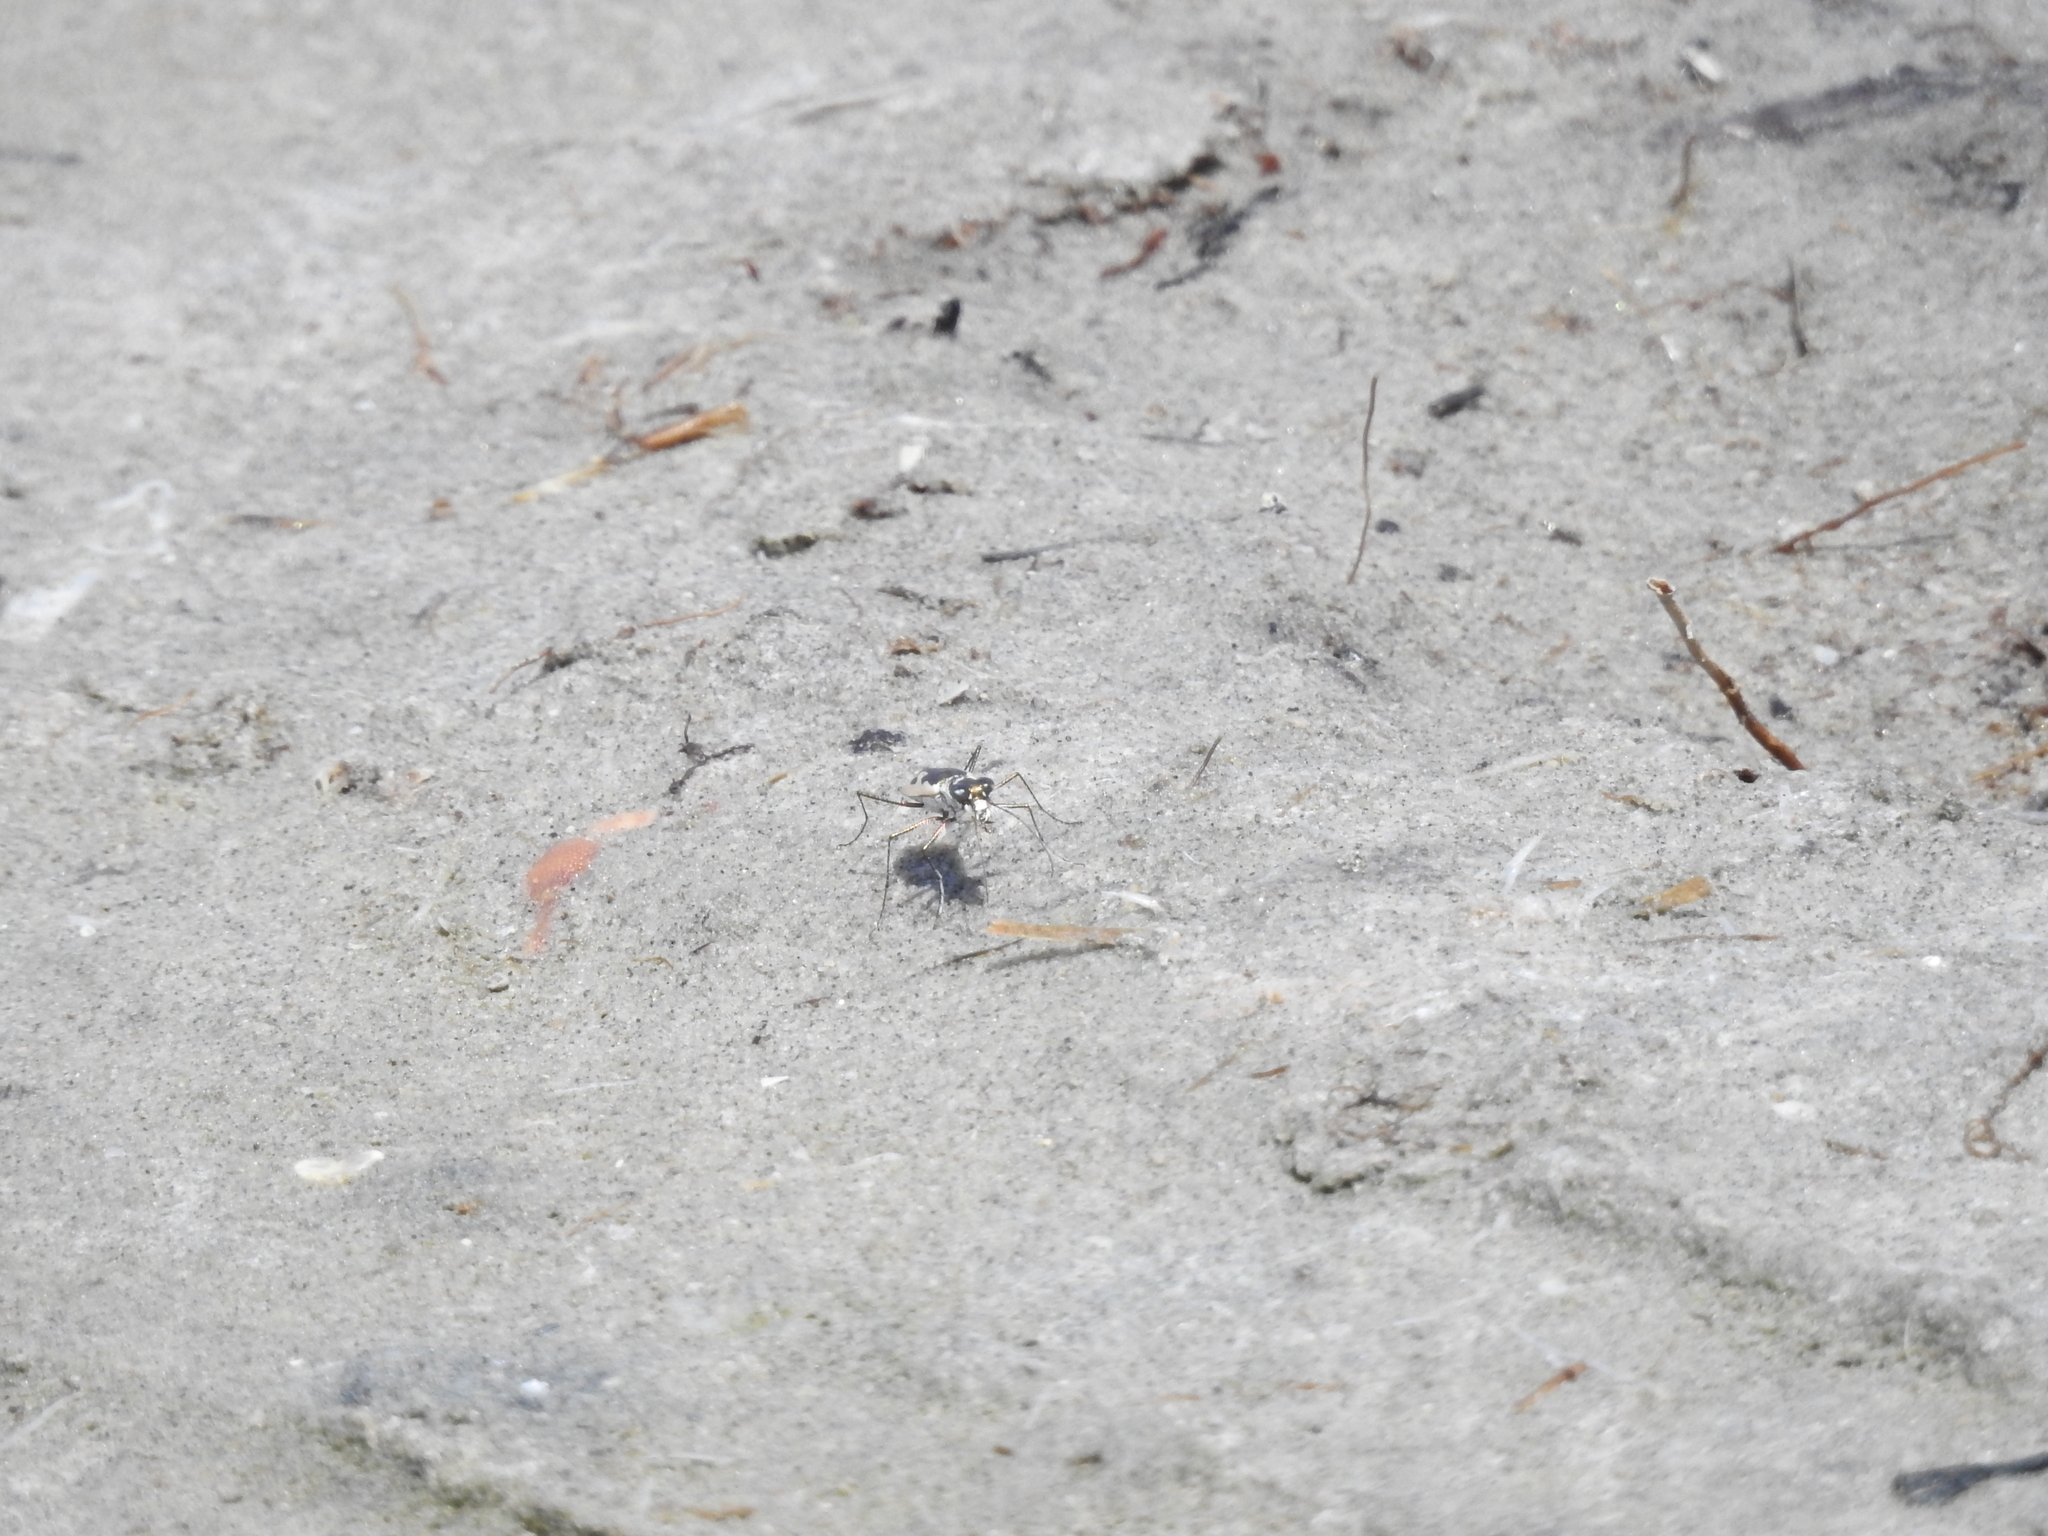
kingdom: Animalia
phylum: Arthropoda
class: Insecta
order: Coleoptera
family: Carabidae
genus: Eunota
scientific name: Eunota pamphila
